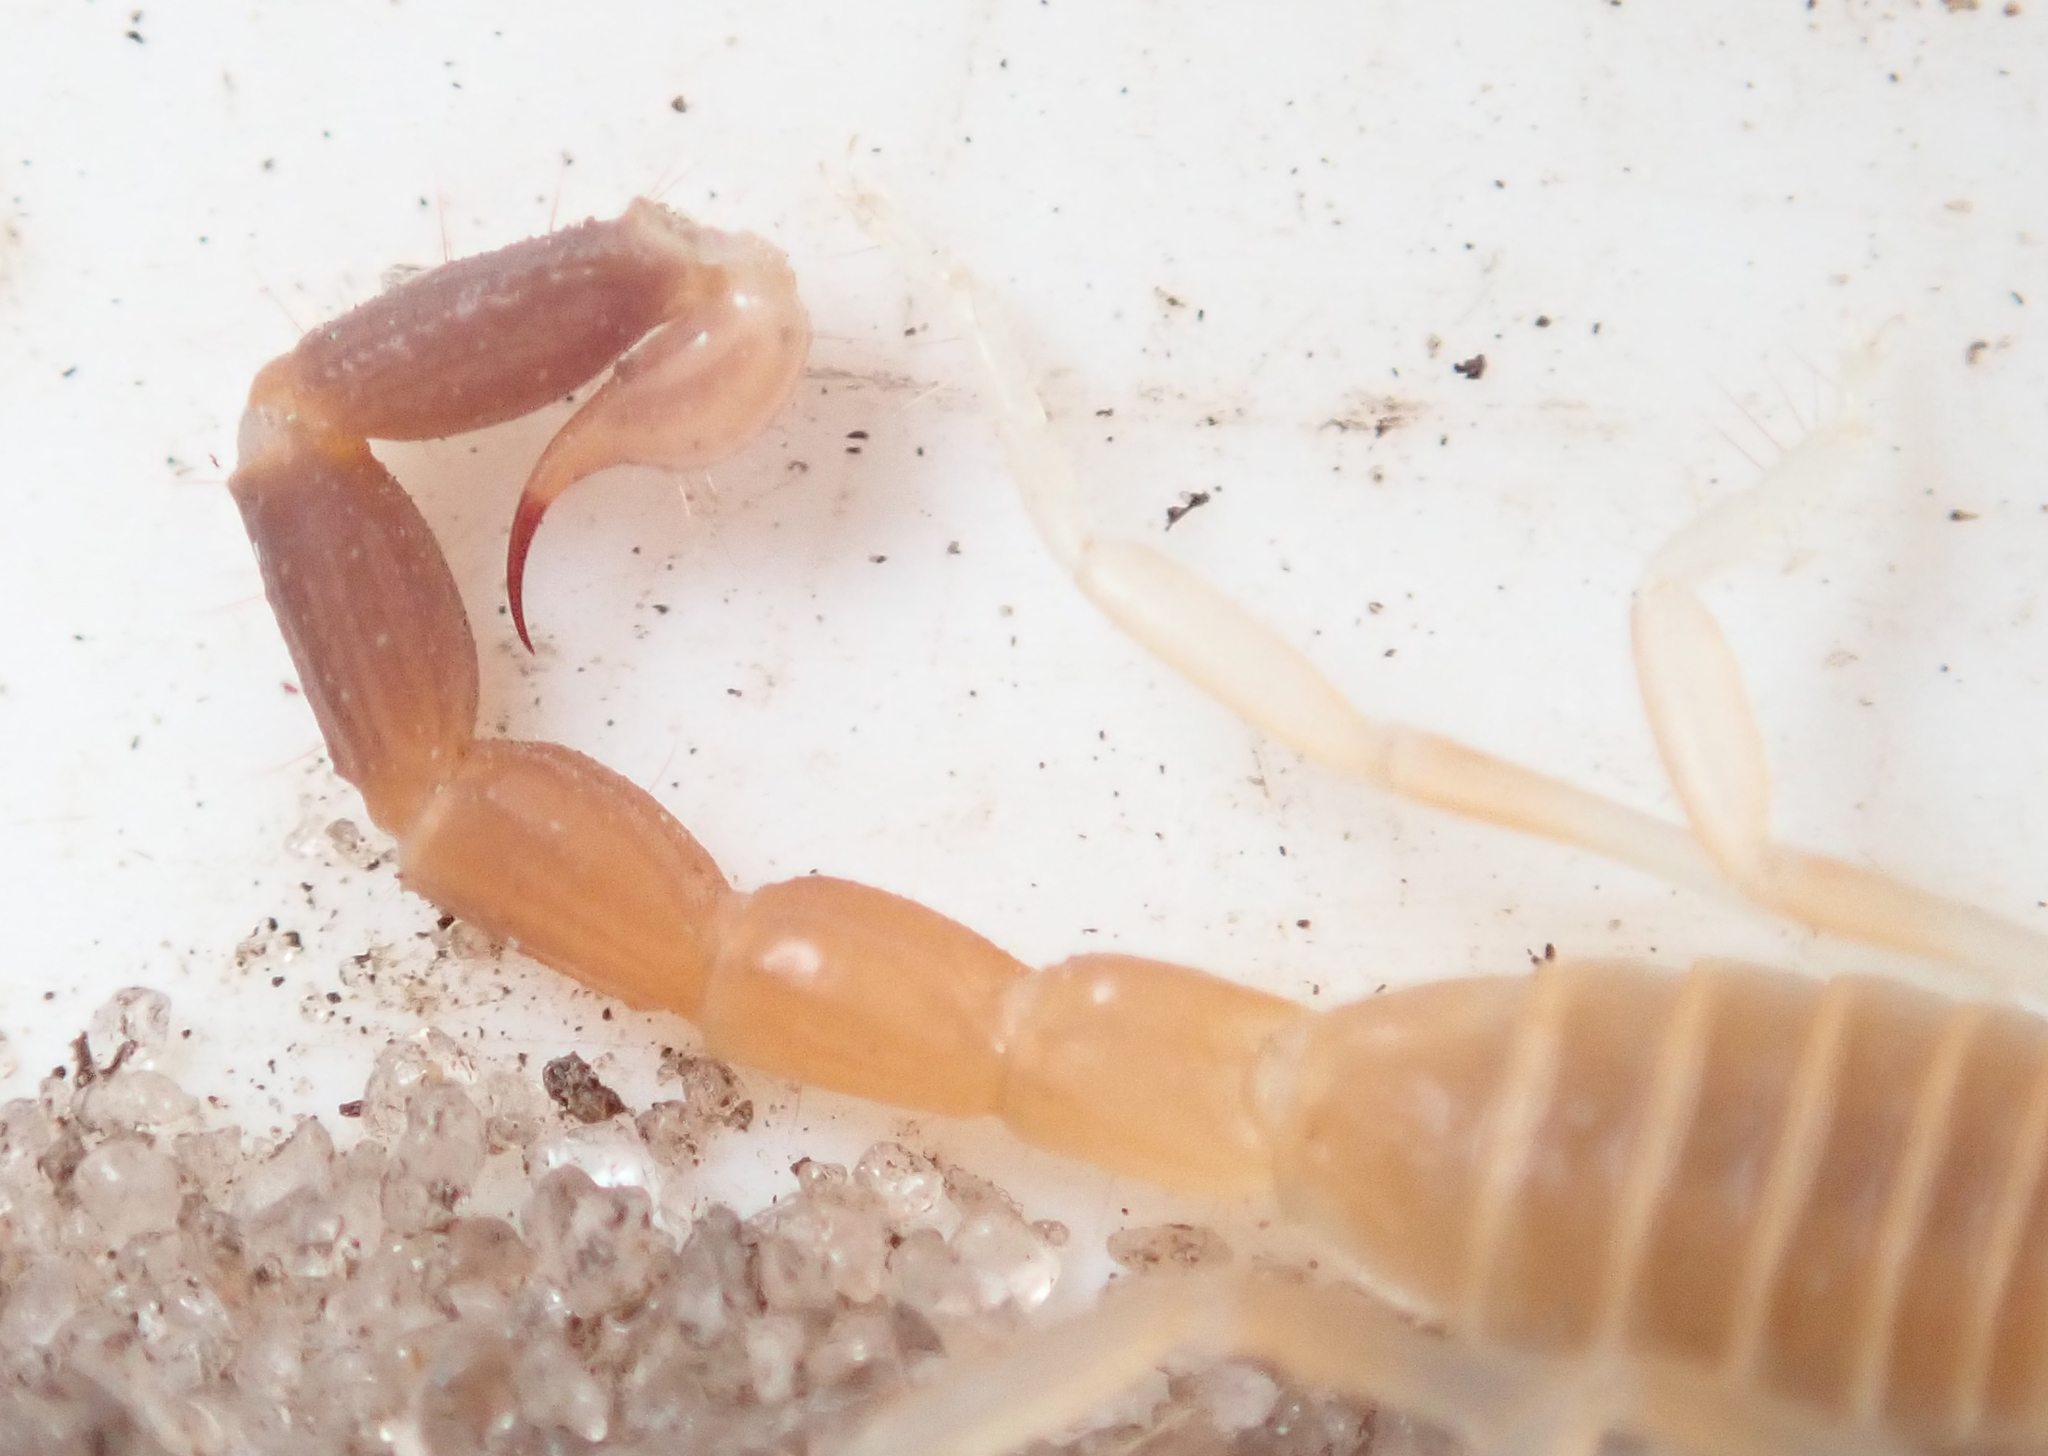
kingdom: Animalia
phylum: Arthropoda
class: Arachnida
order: Scorpiones
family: Buthidae
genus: Parabuthus
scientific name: Parabuthus raudus
